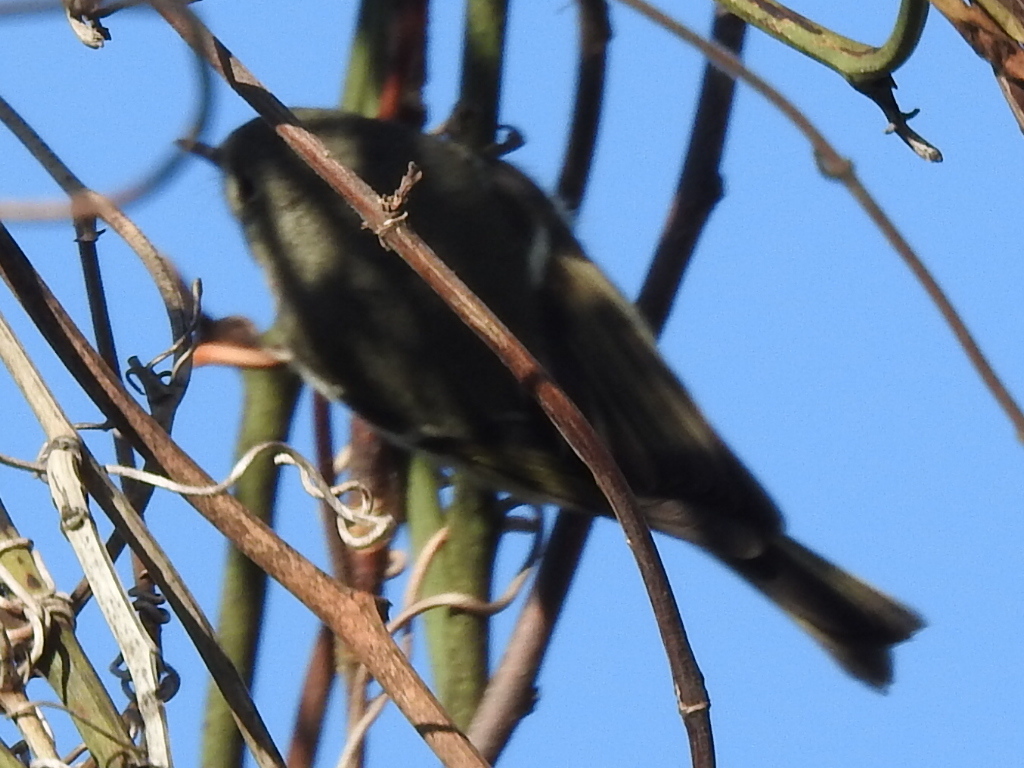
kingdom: Animalia
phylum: Chordata
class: Aves
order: Passeriformes
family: Regulidae
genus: Regulus
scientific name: Regulus calendula
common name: Ruby-crowned kinglet
